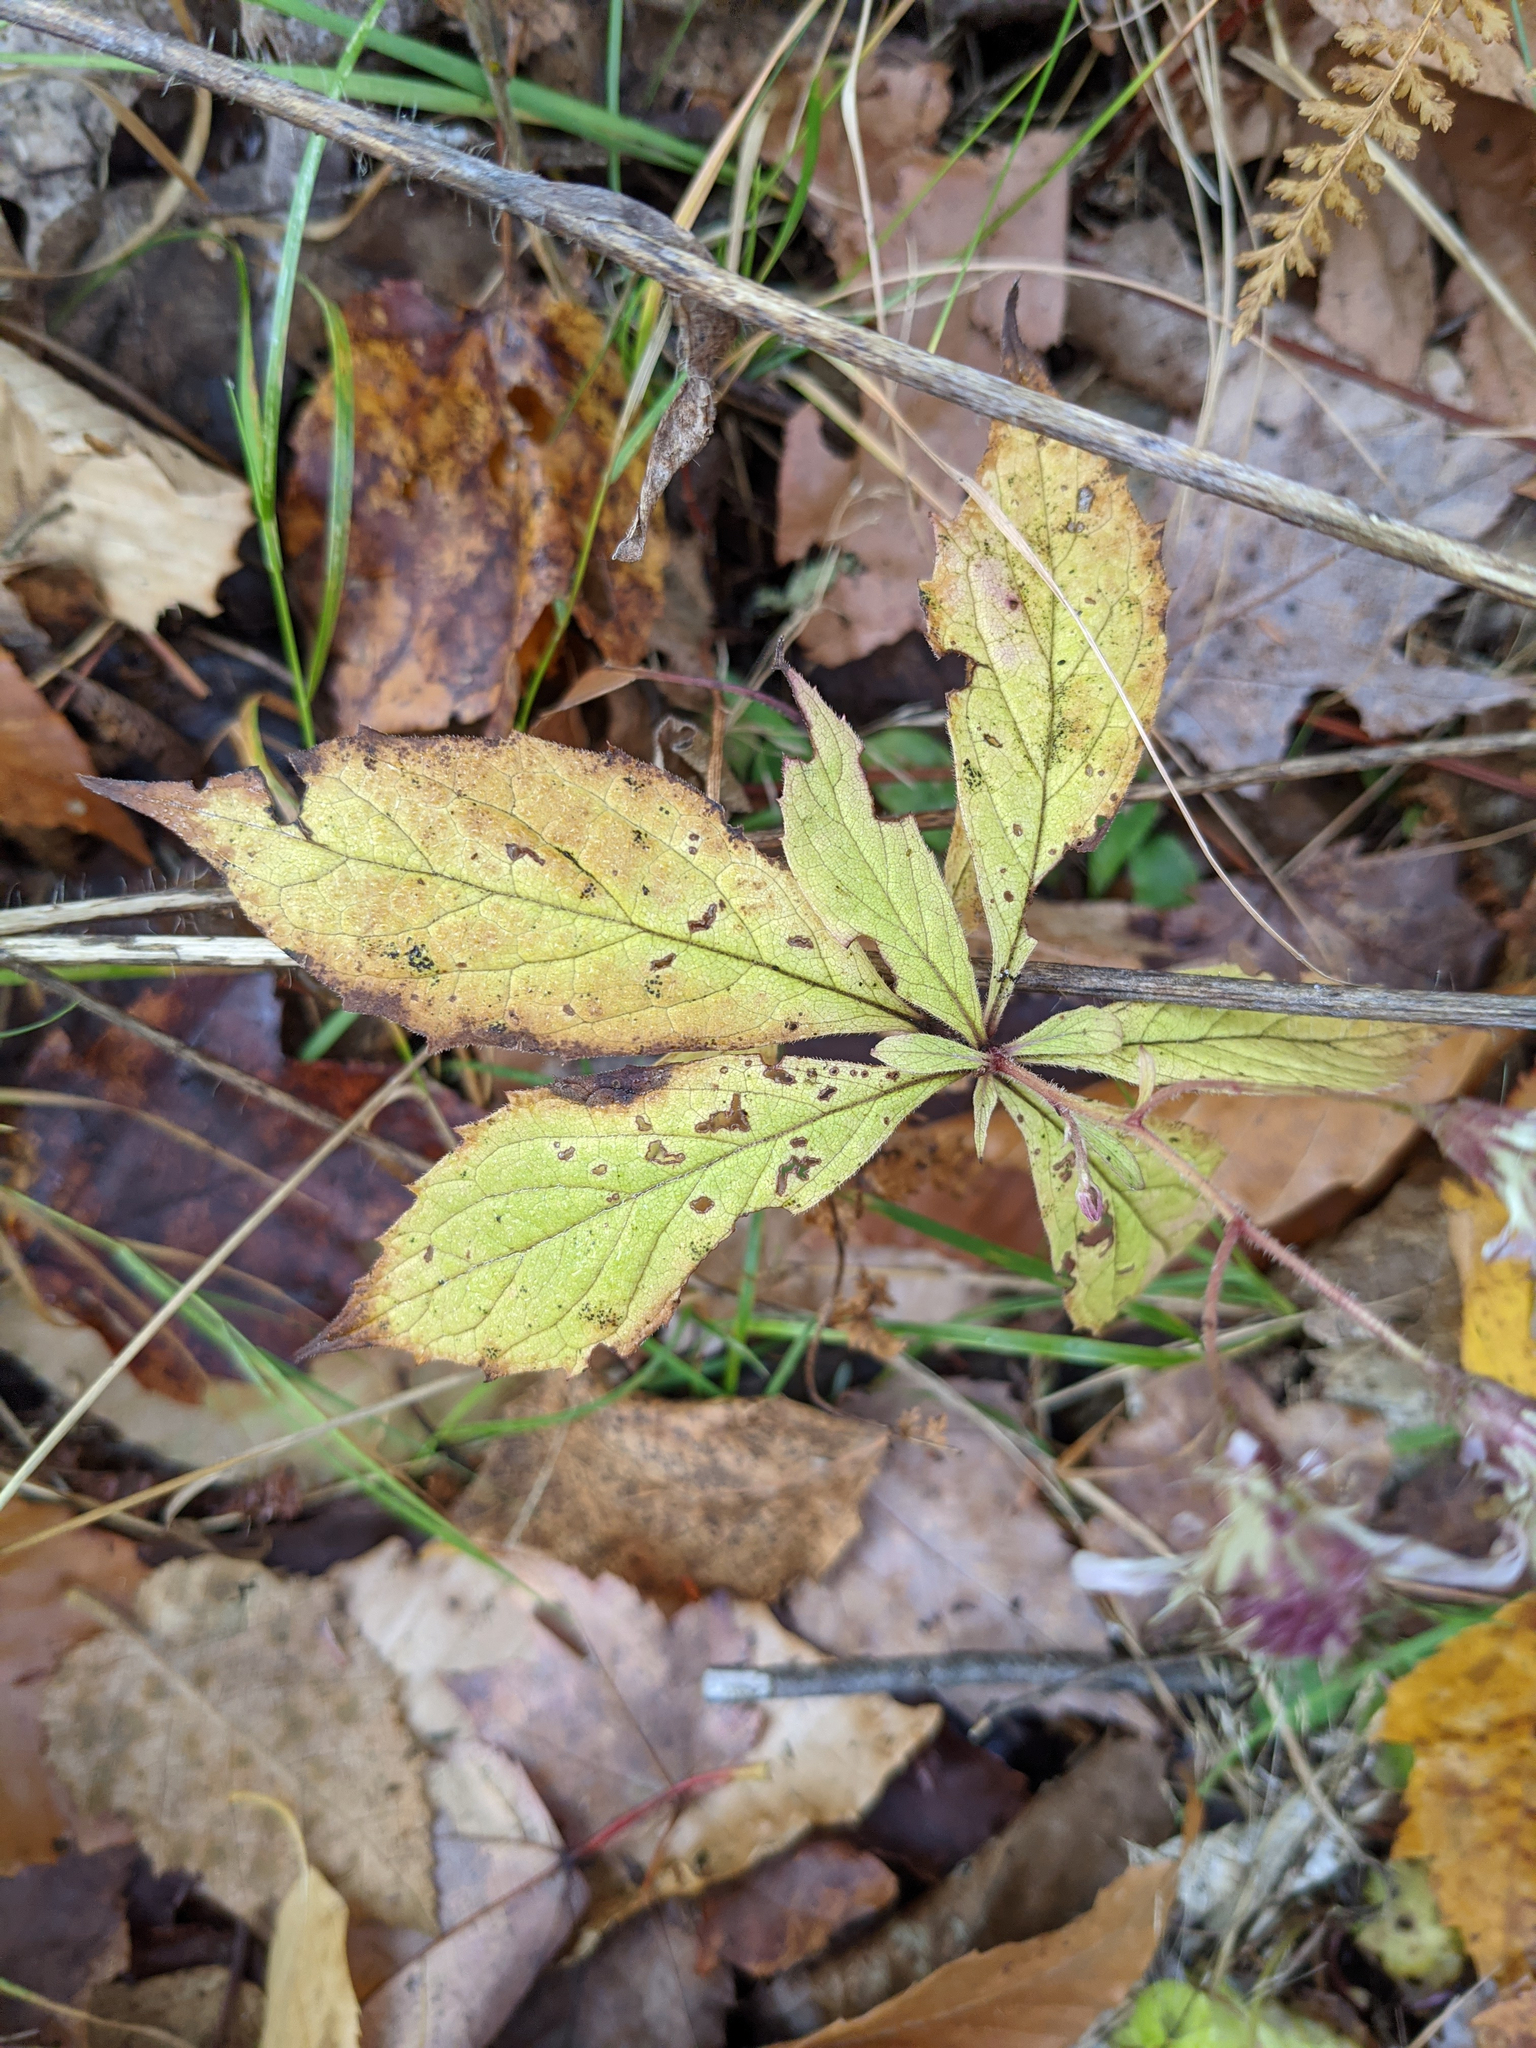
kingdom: Plantae
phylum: Tracheophyta
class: Magnoliopsida
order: Asterales
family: Asteraceae
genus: Oclemena
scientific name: Oclemena acuminata
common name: Mountain aster
